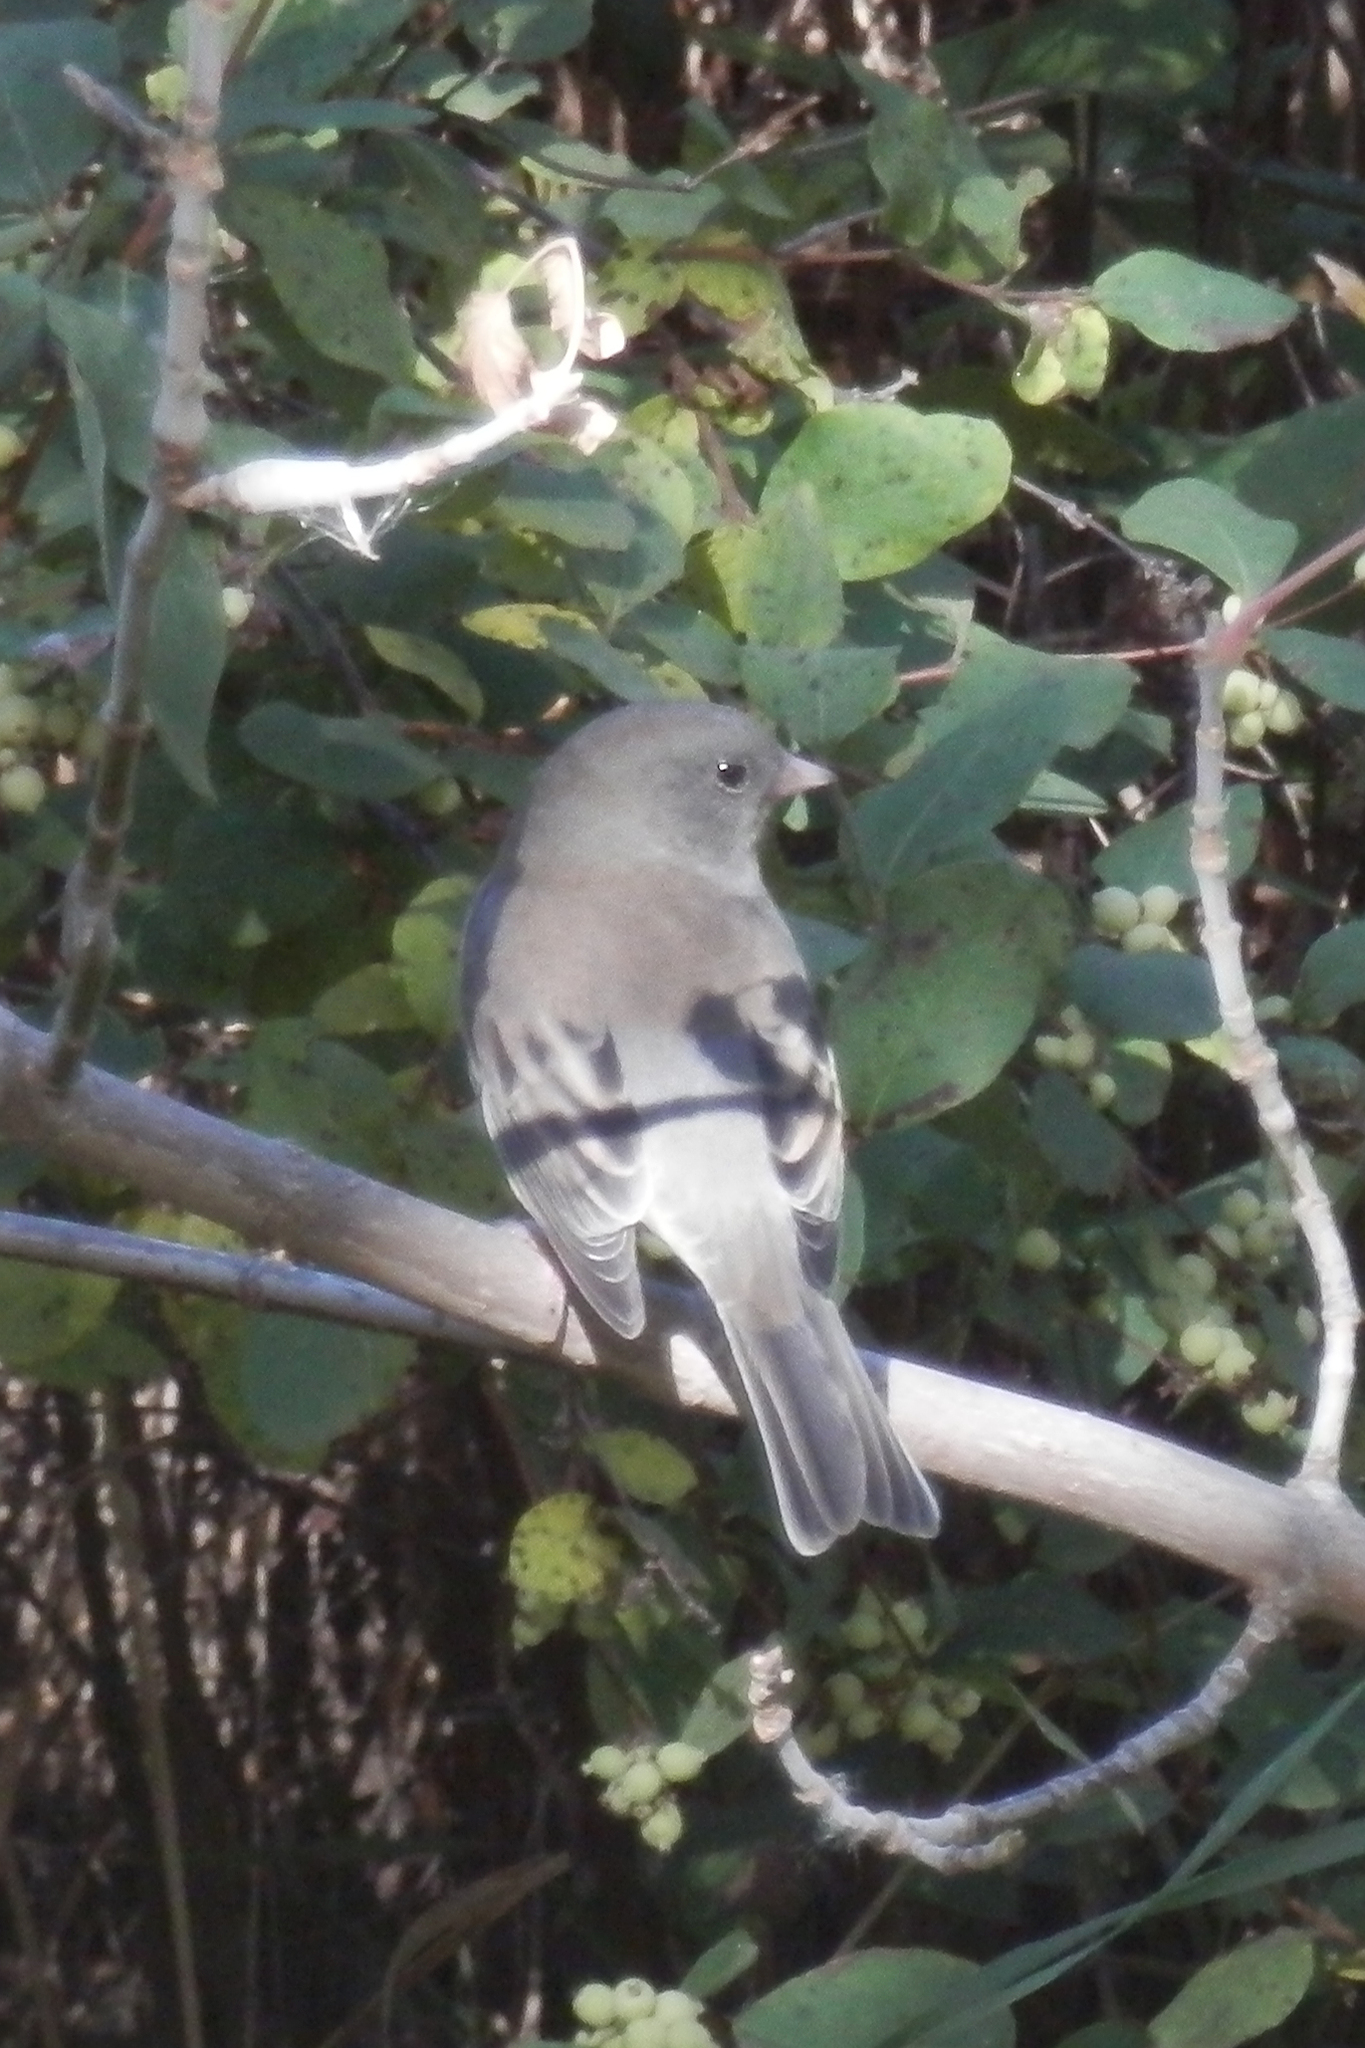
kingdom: Animalia
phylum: Chordata
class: Aves
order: Passeriformes
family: Passerellidae
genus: Junco
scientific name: Junco hyemalis
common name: Dark-eyed junco
